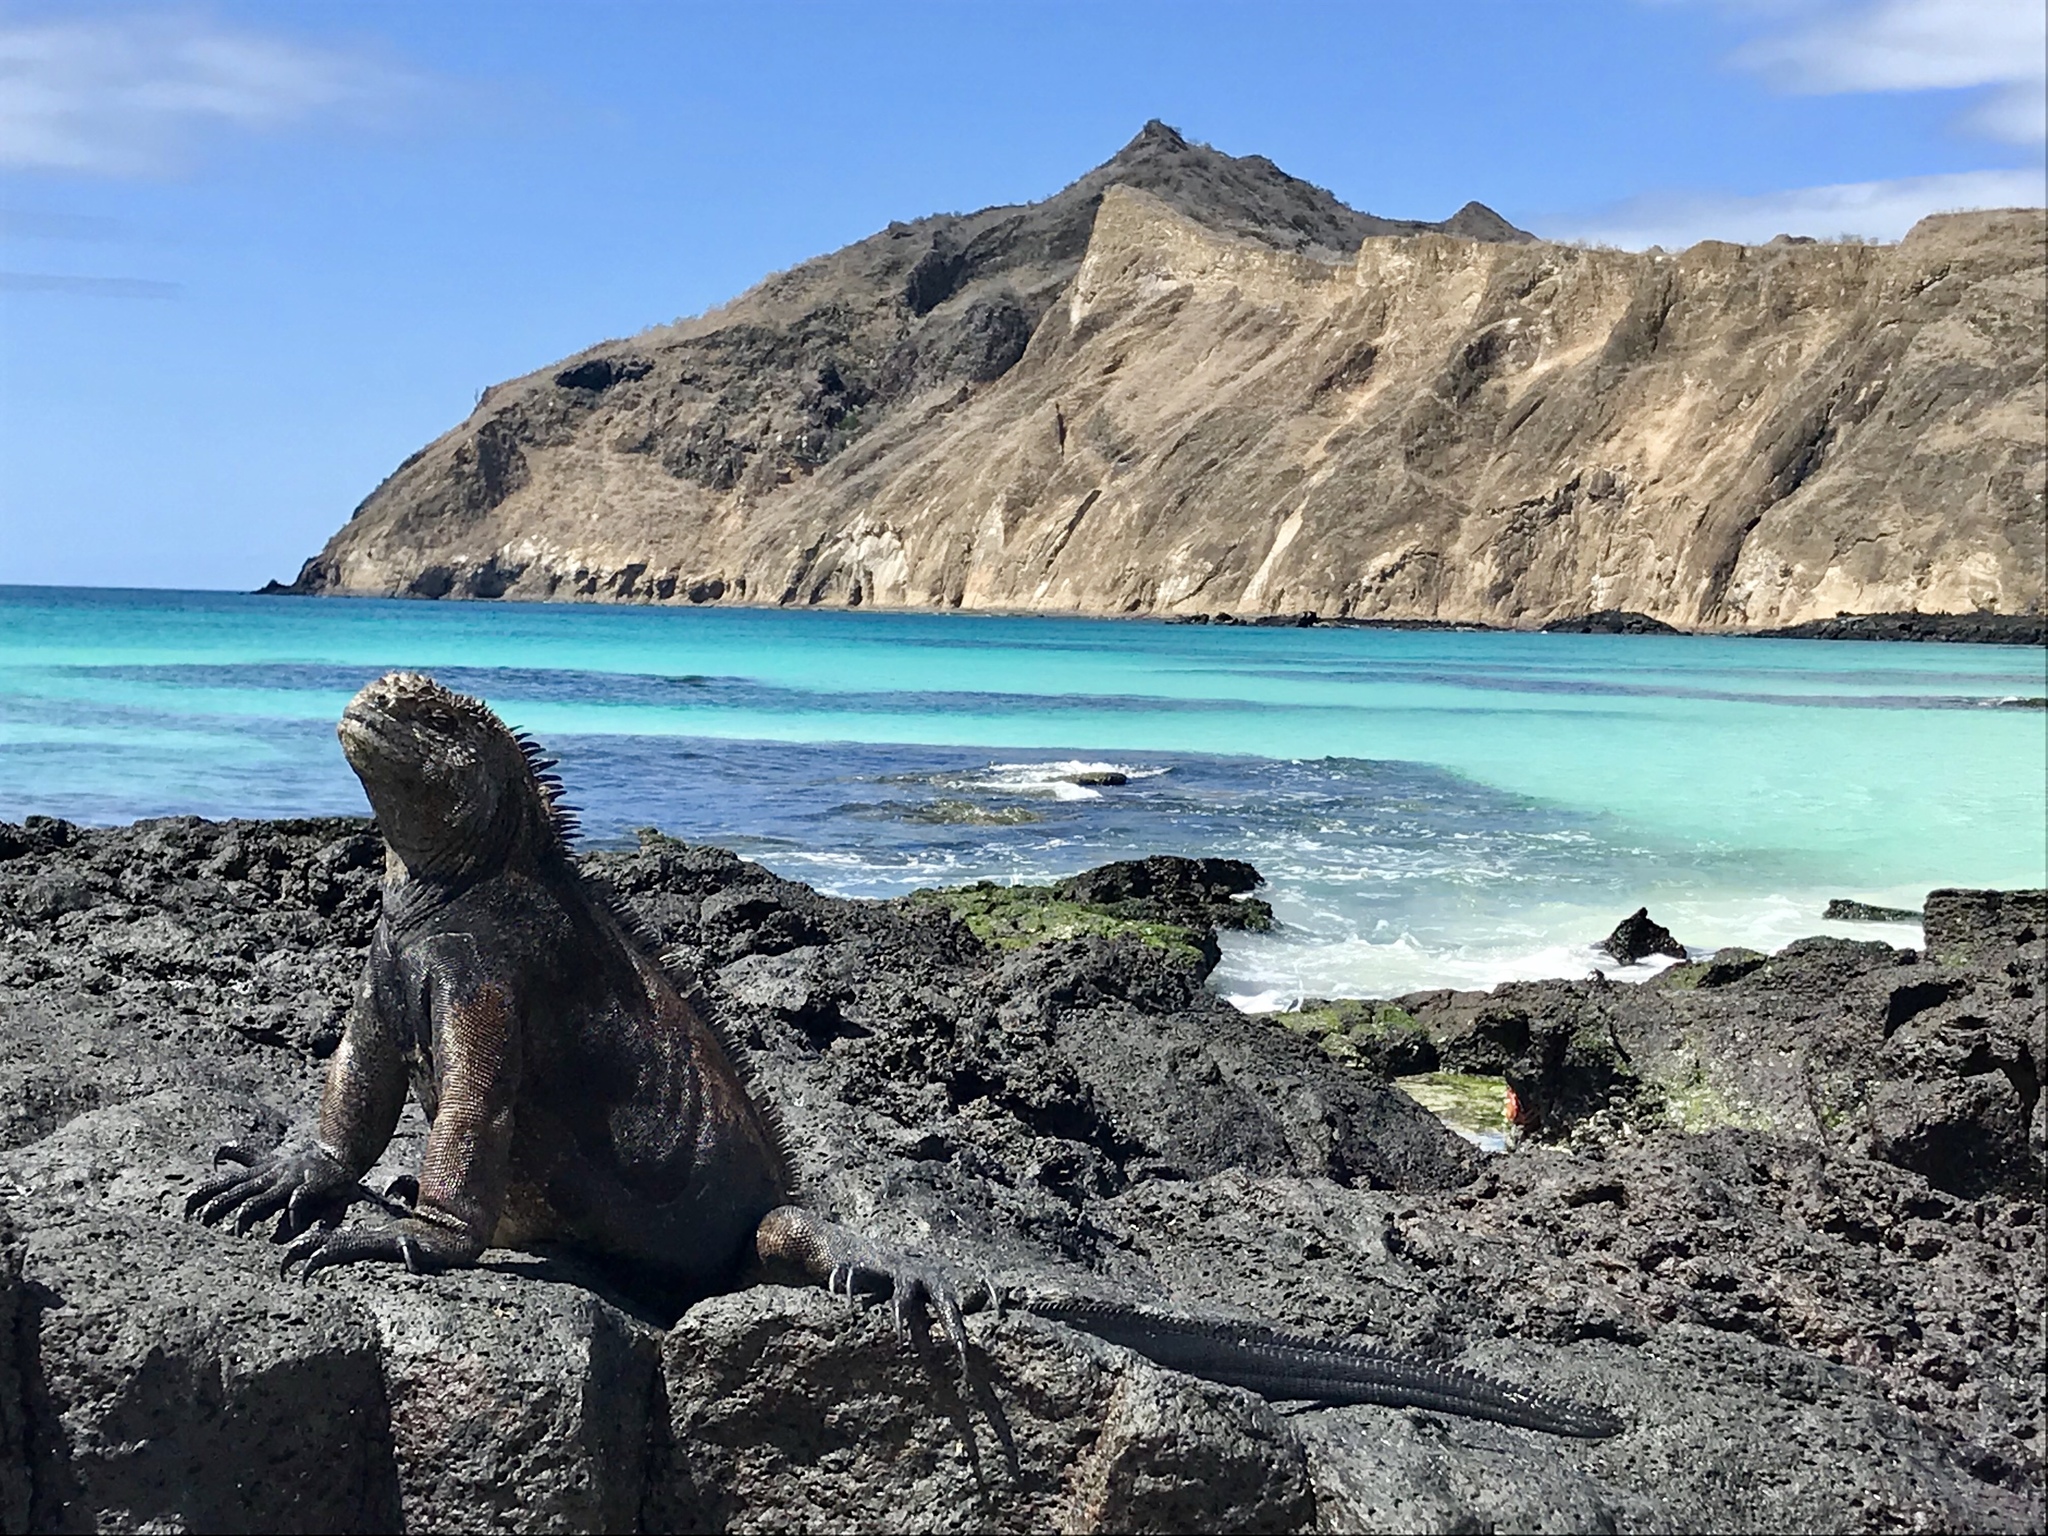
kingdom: Animalia
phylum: Chordata
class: Squamata
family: Iguanidae
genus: Amblyrhynchus
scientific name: Amblyrhynchus cristatus
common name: Marine iguana
